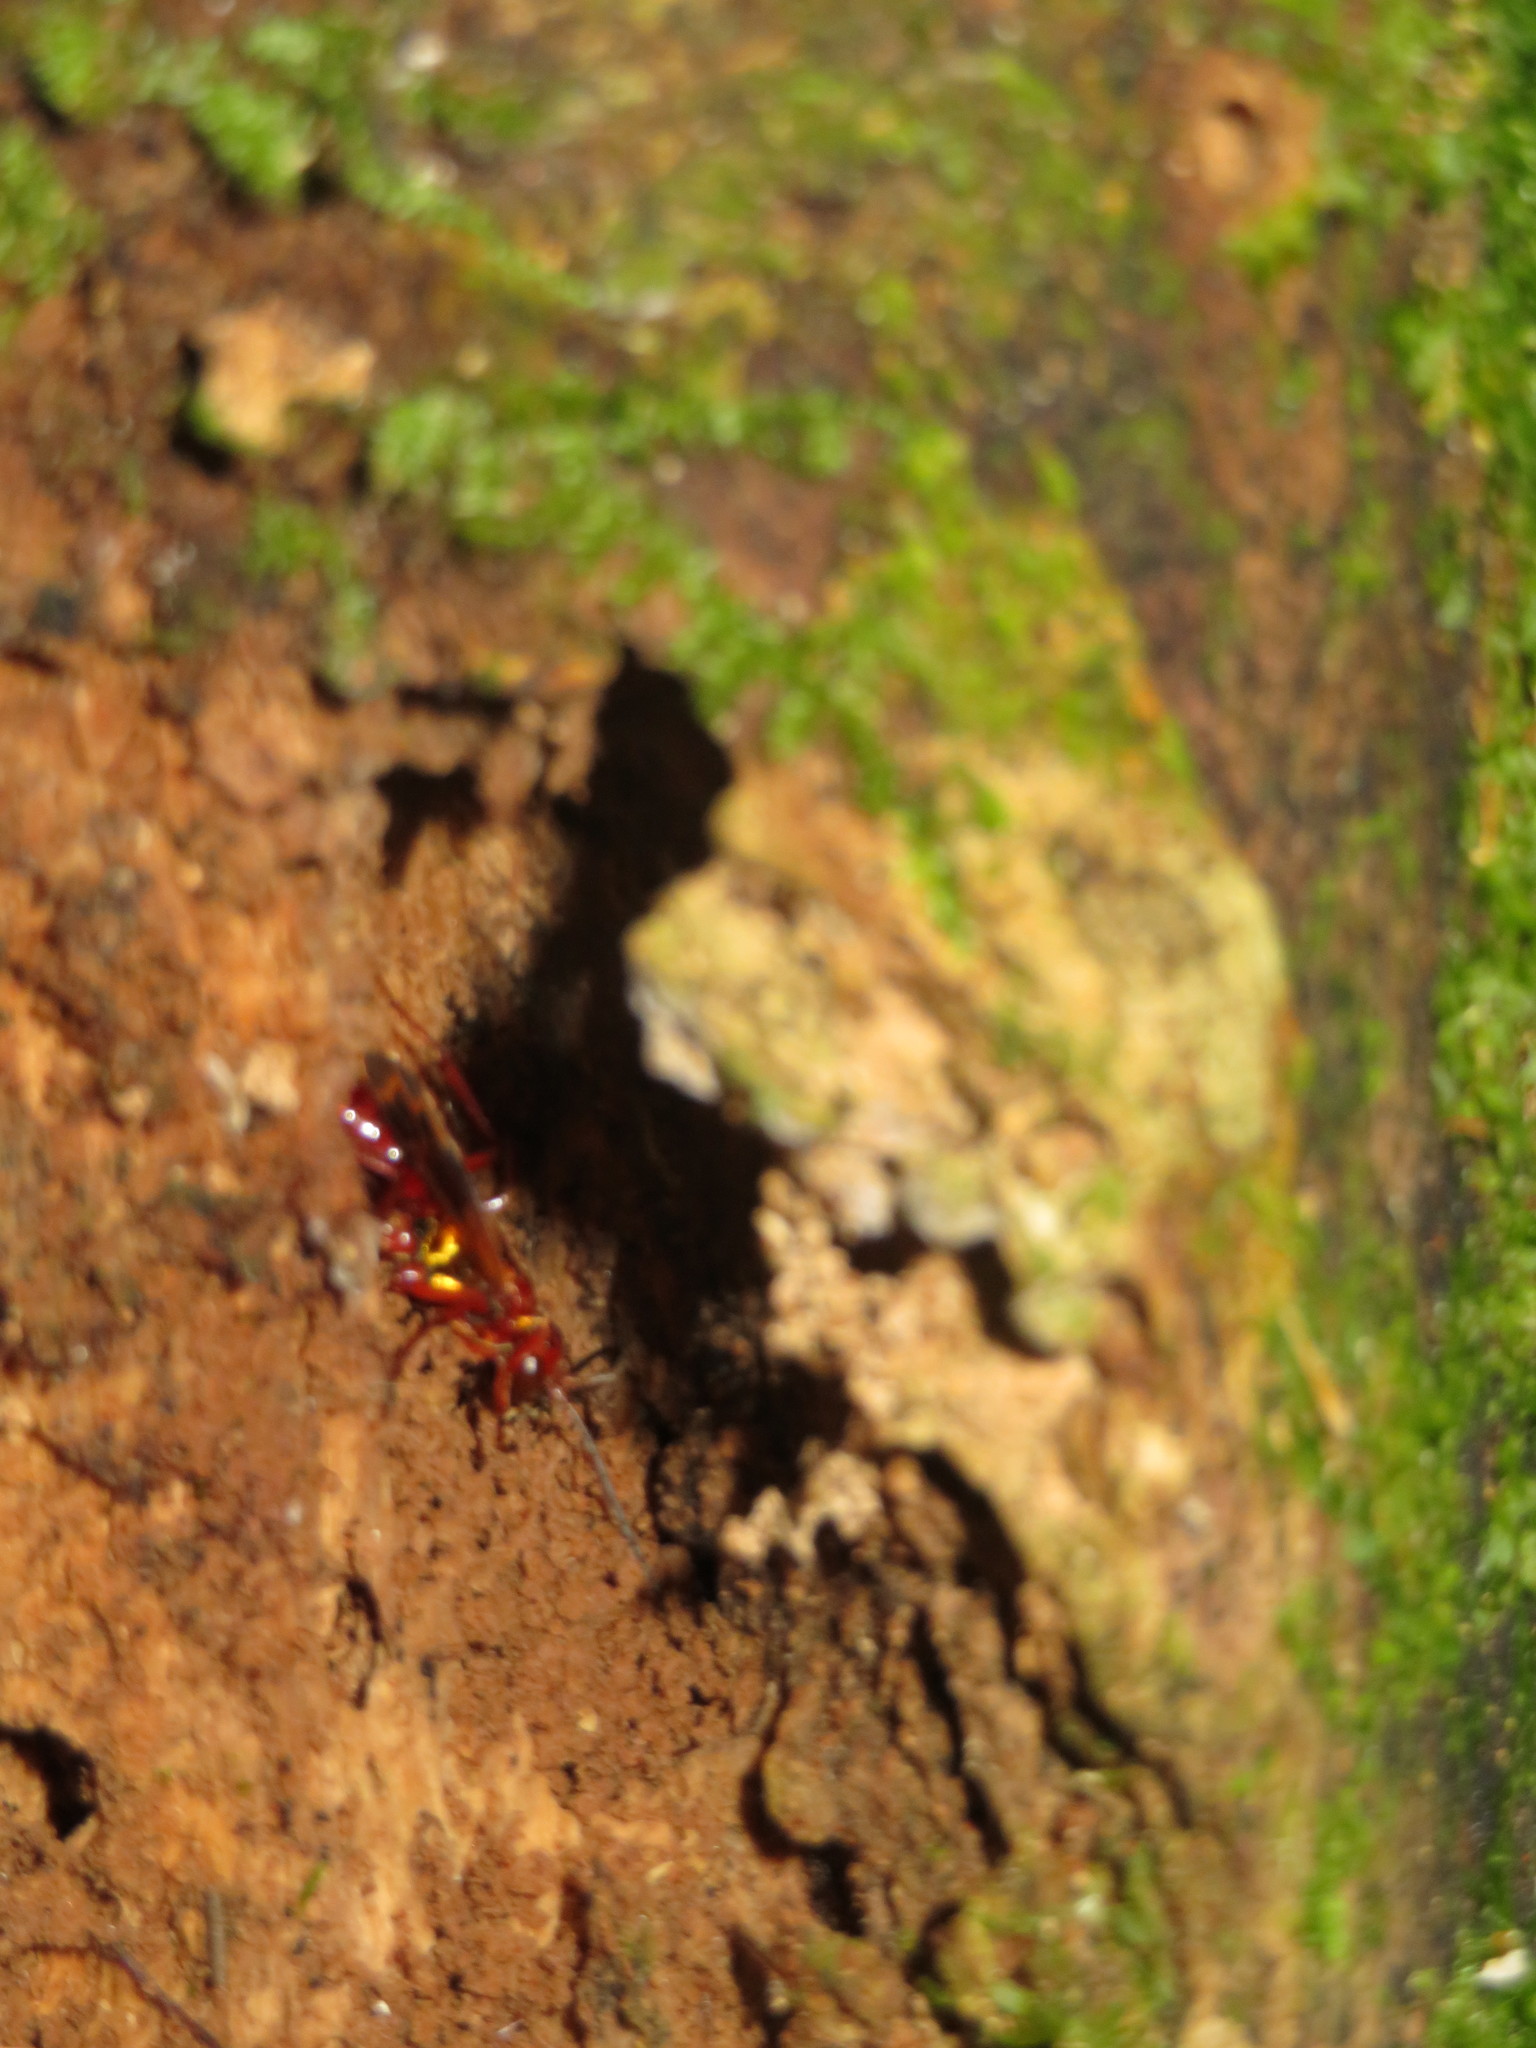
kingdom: Animalia
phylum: Arthropoda
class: Insecta
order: Hymenoptera
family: Pompilidae
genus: Sphictostethus
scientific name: Sphictostethus nitidus
